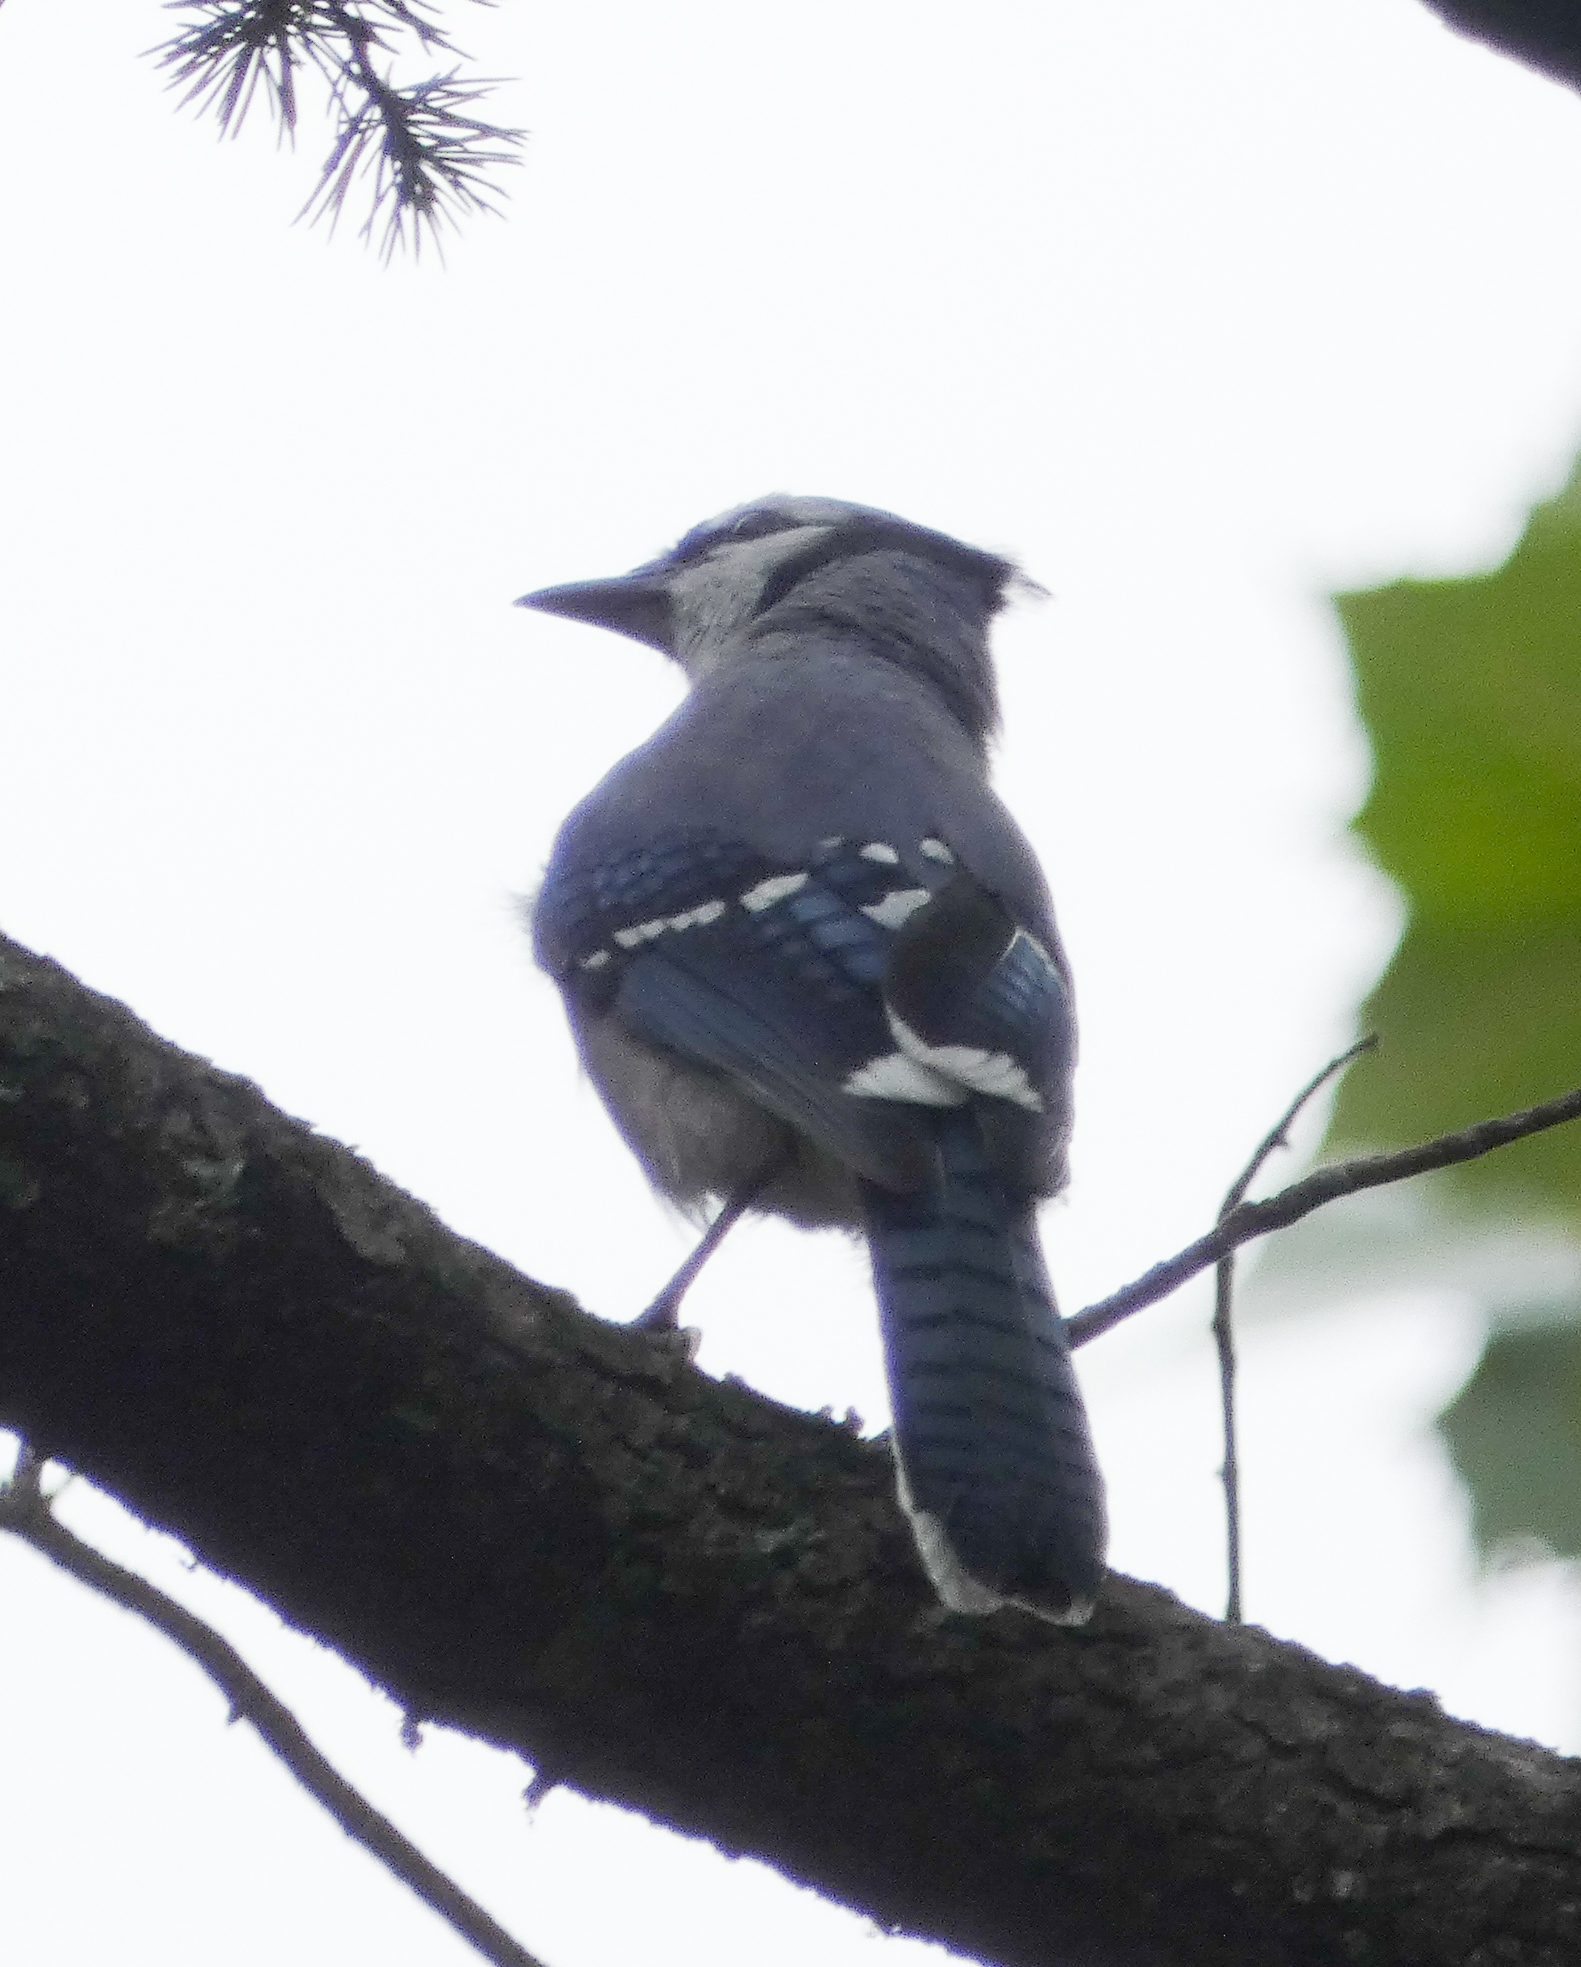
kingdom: Animalia
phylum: Chordata
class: Aves
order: Passeriformes
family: Corvidae
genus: Cyanocitta
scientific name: Cyanocitta cristata
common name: Blue jay
